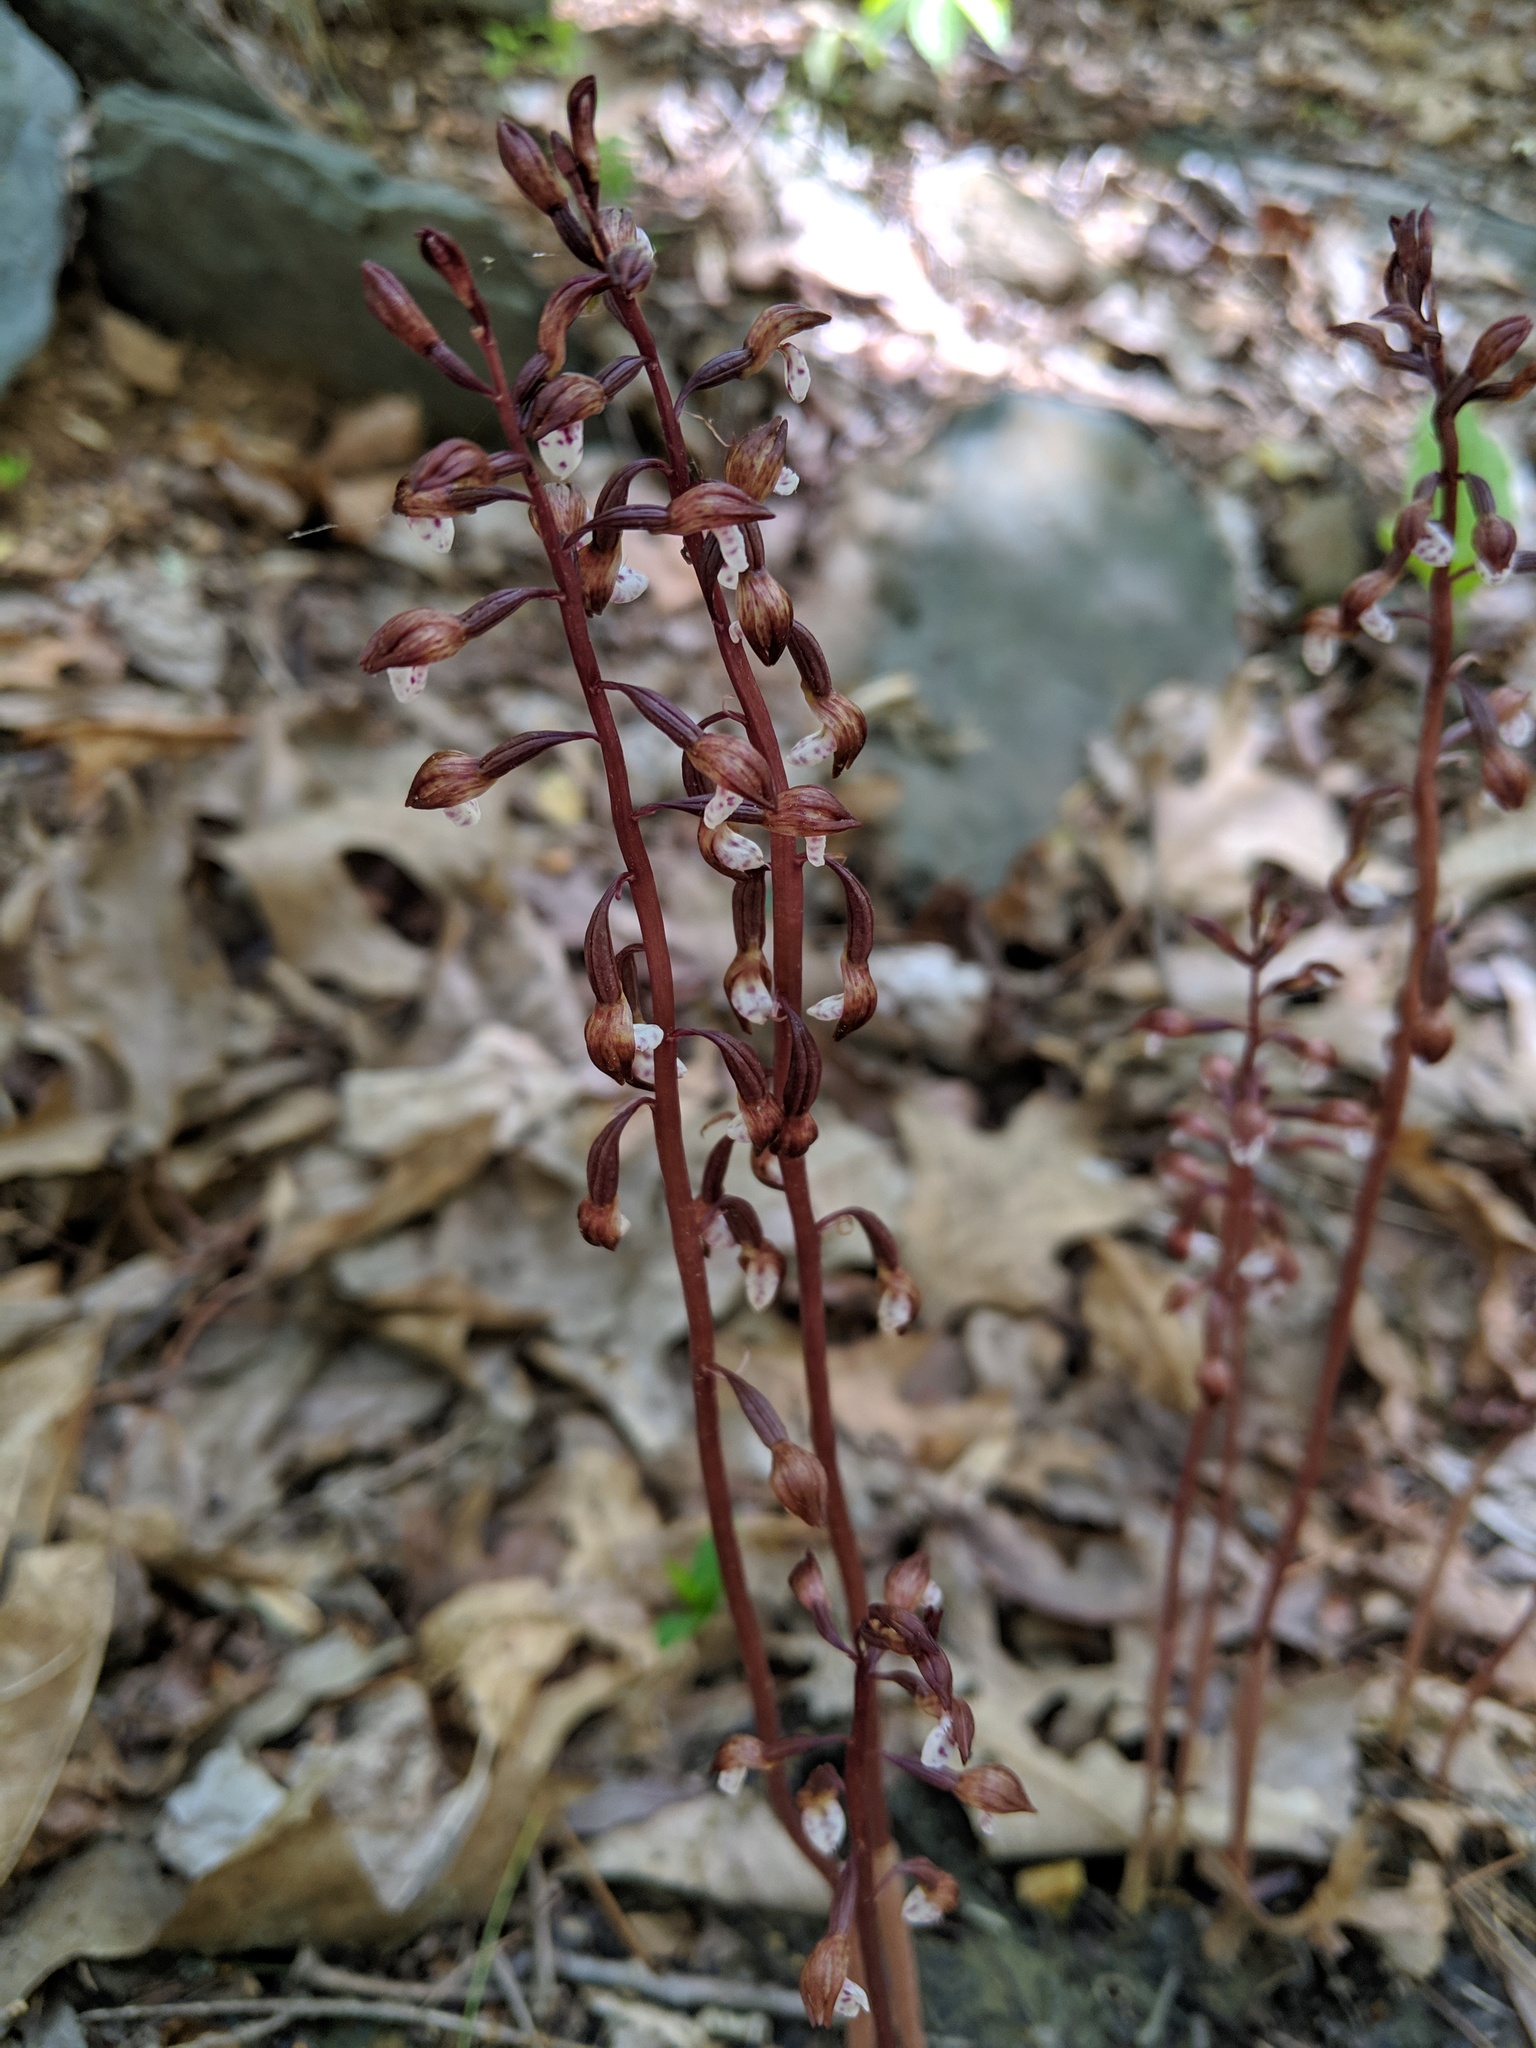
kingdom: Plantae
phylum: Tracheophyta
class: Liliopsida
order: Asparagales
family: Orchidaceae
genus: Corallorhiza
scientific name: Corallorhiza wisteriana
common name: Spring coralroot
